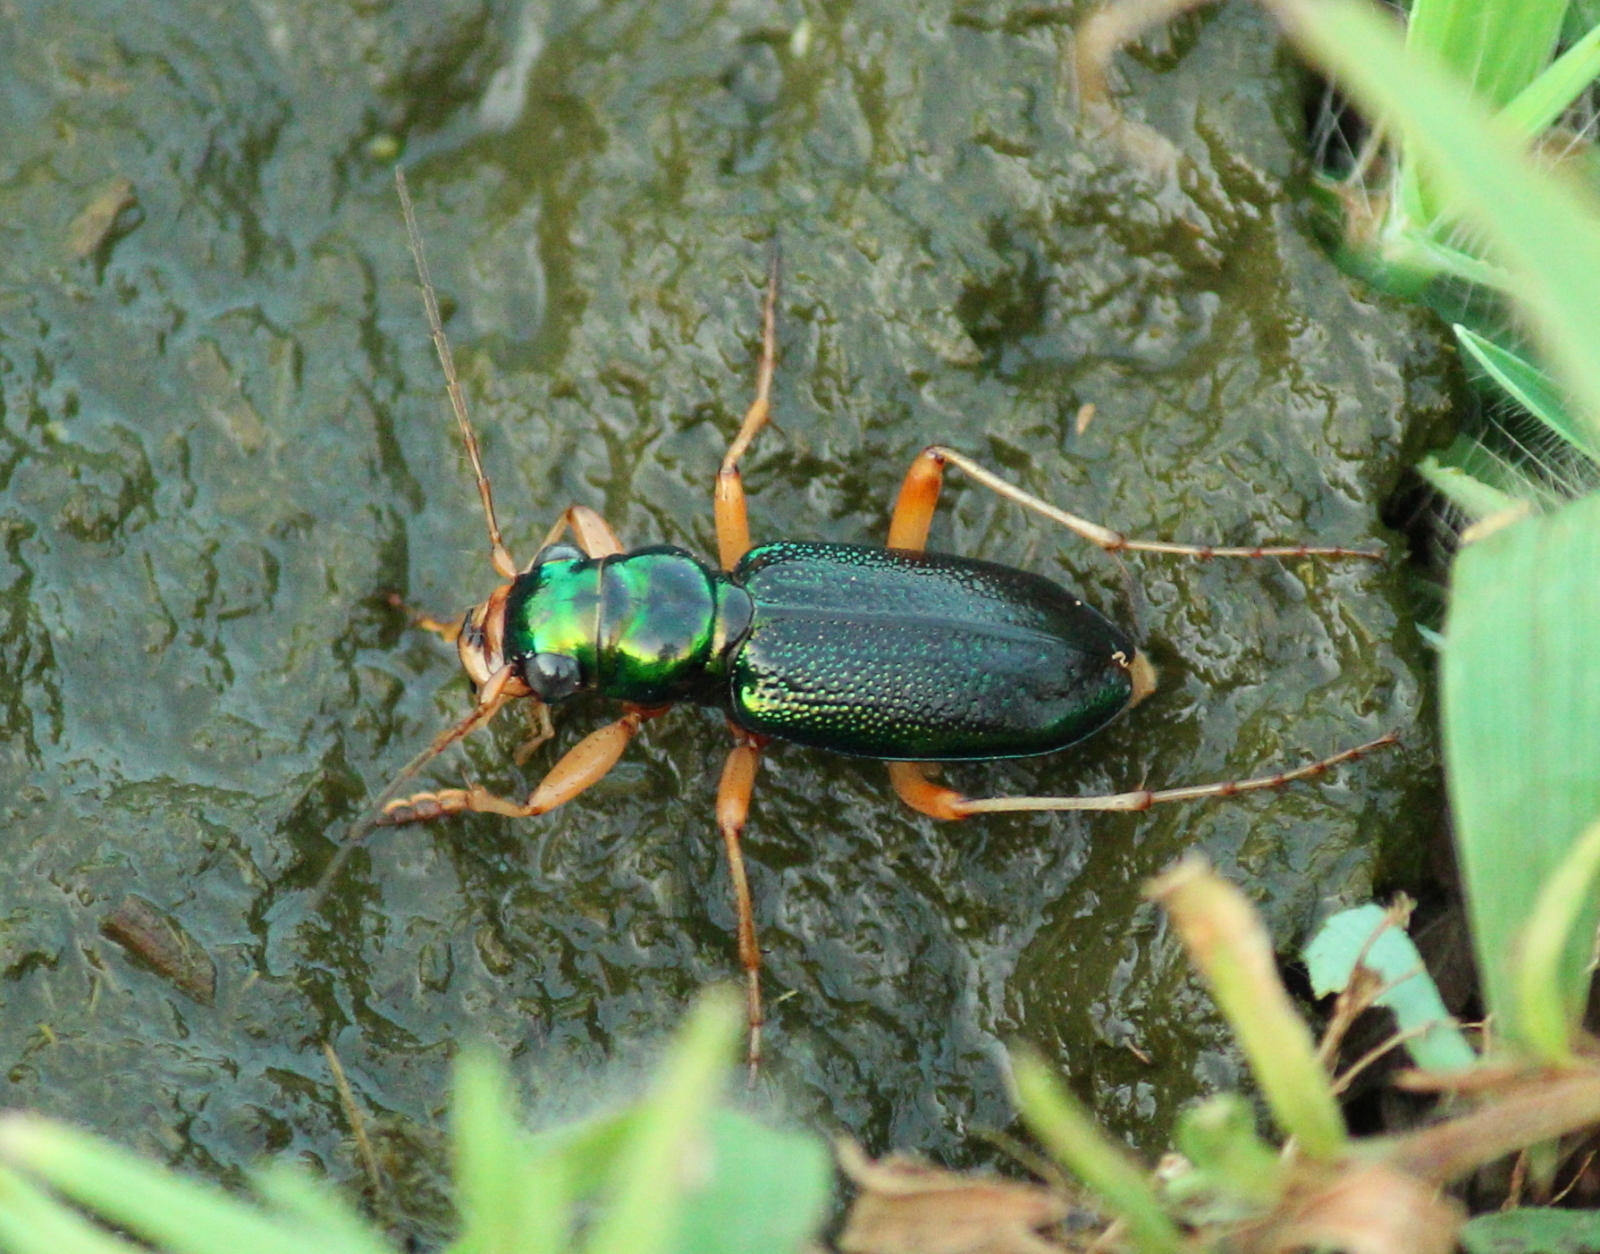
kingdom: Animalia
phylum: Arthropoda
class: Insecta
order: Coleoptera
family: Carabidae
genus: Tetracha
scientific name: Tetracha virginica
